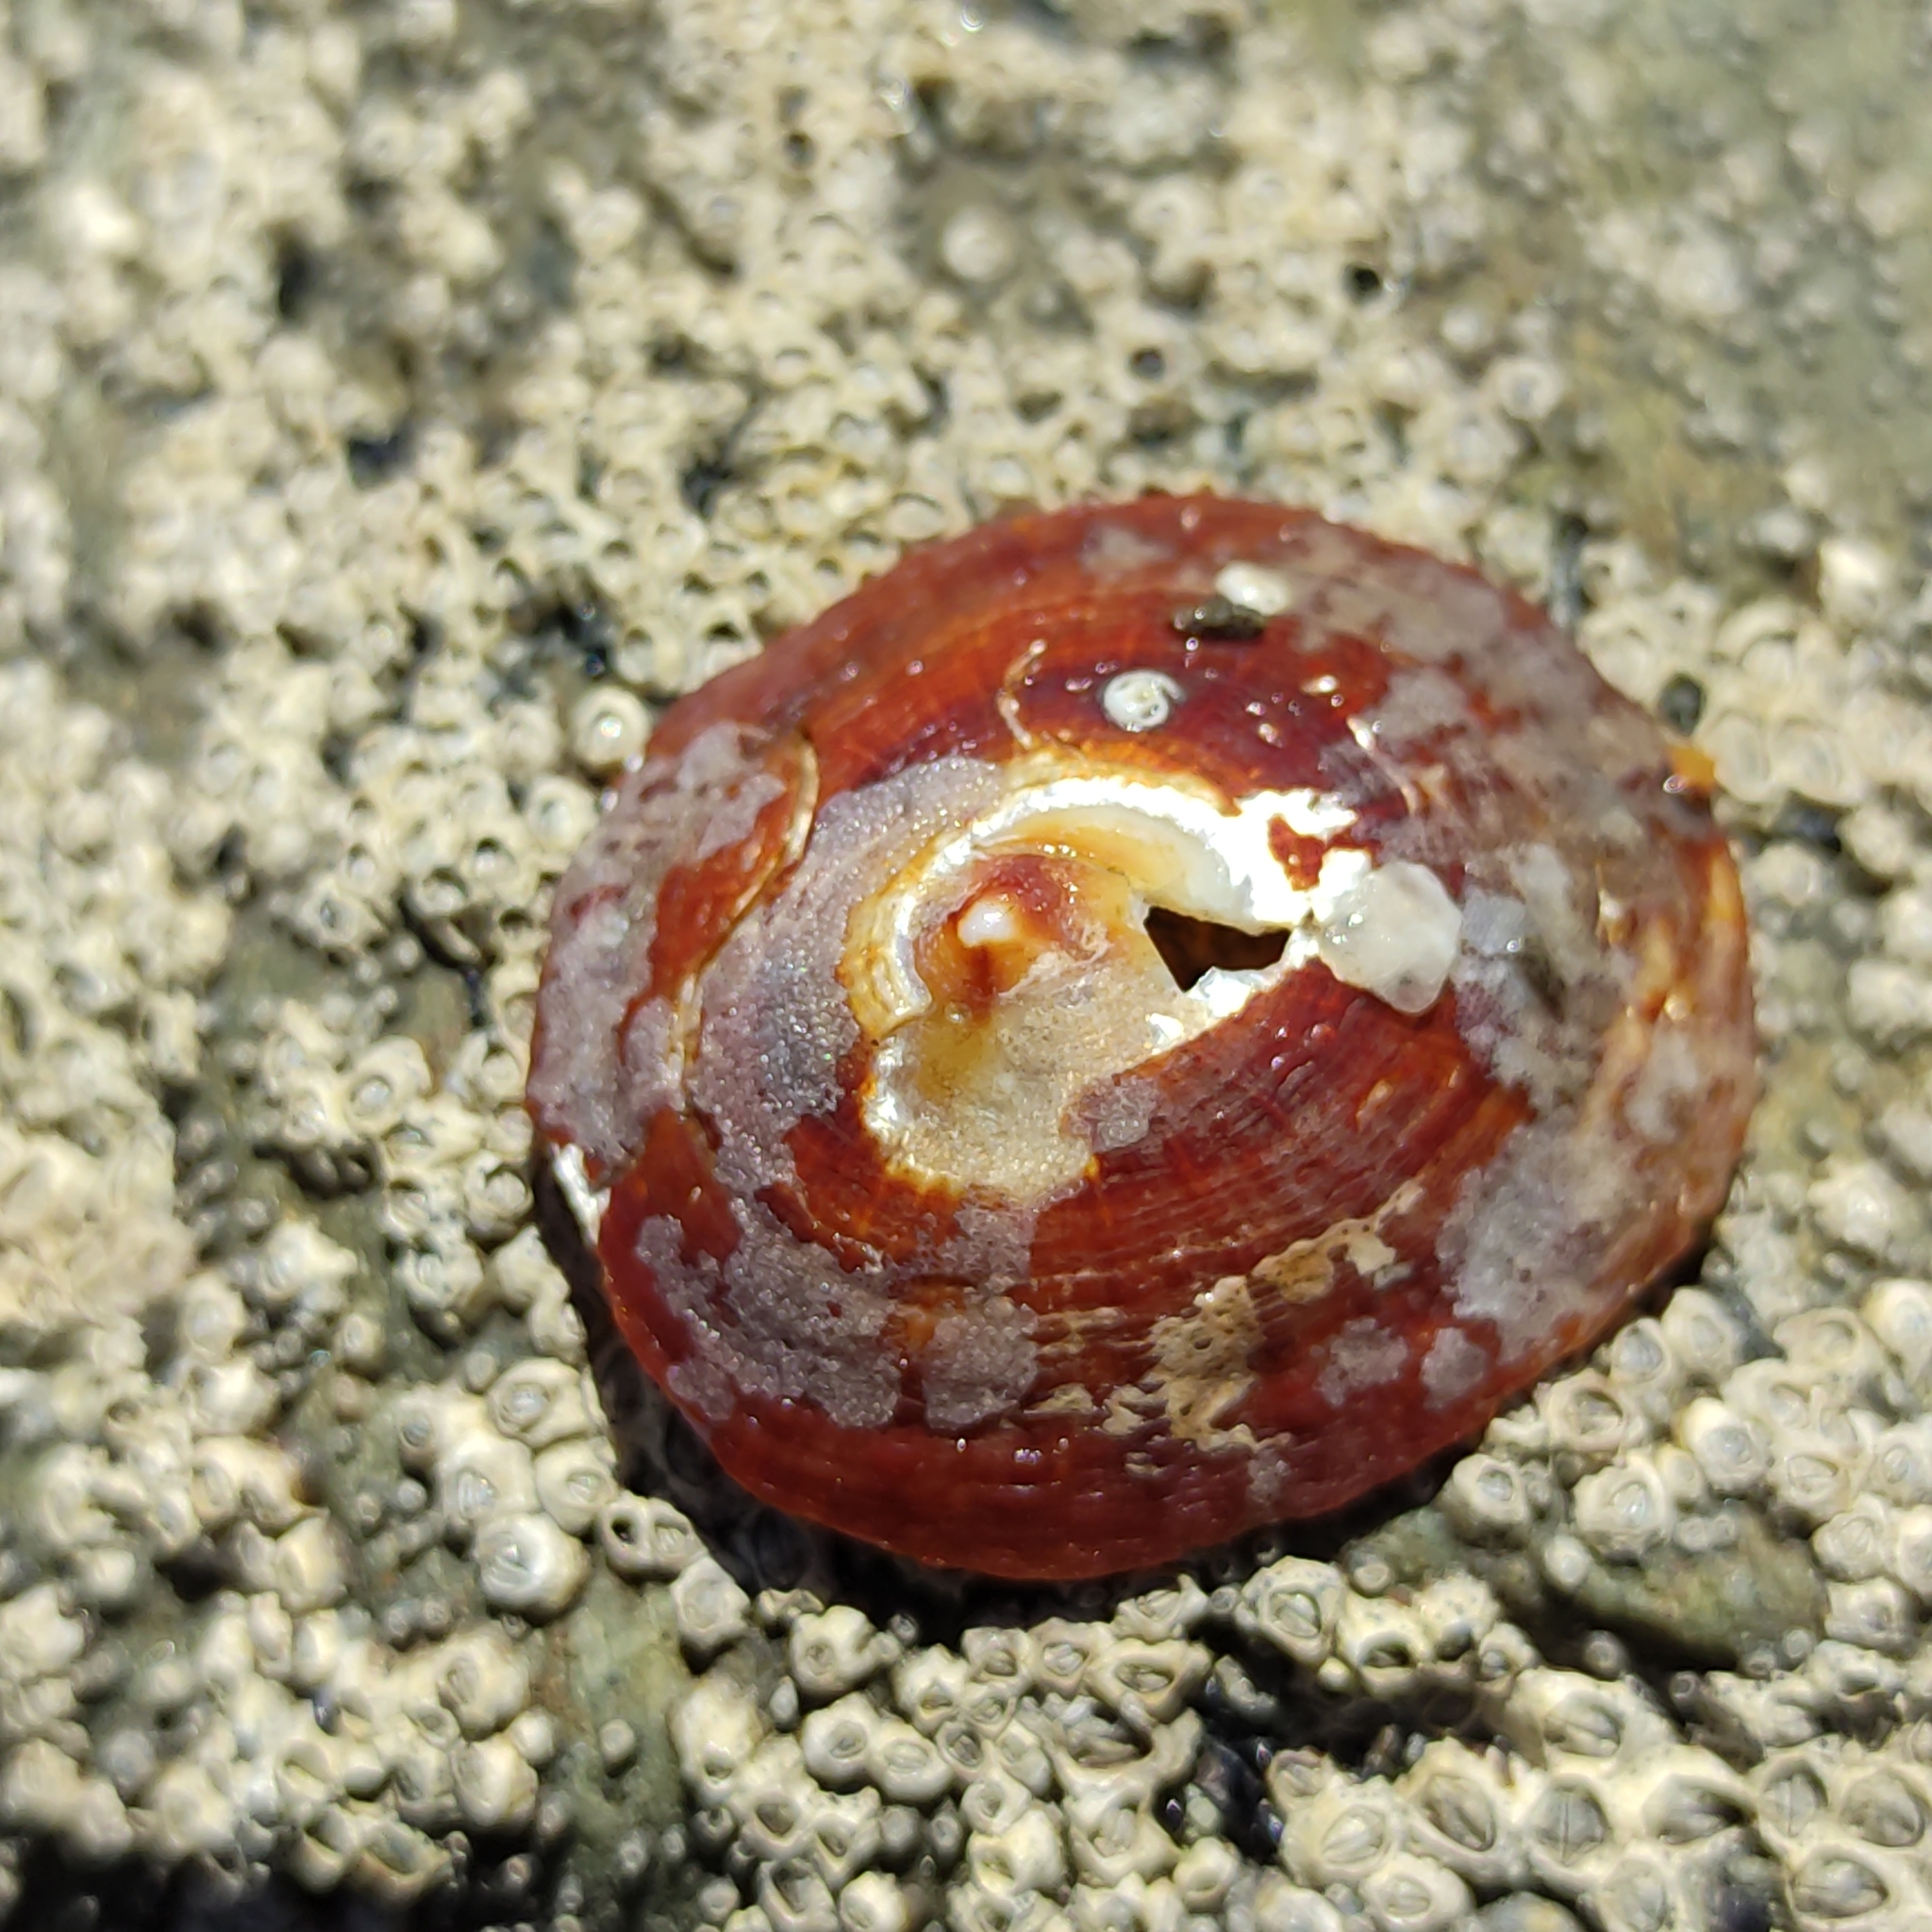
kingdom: Animalia
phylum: Mollusca
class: Gastropoda
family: Nacellidae
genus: Cellana
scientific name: Cellana stellifera
